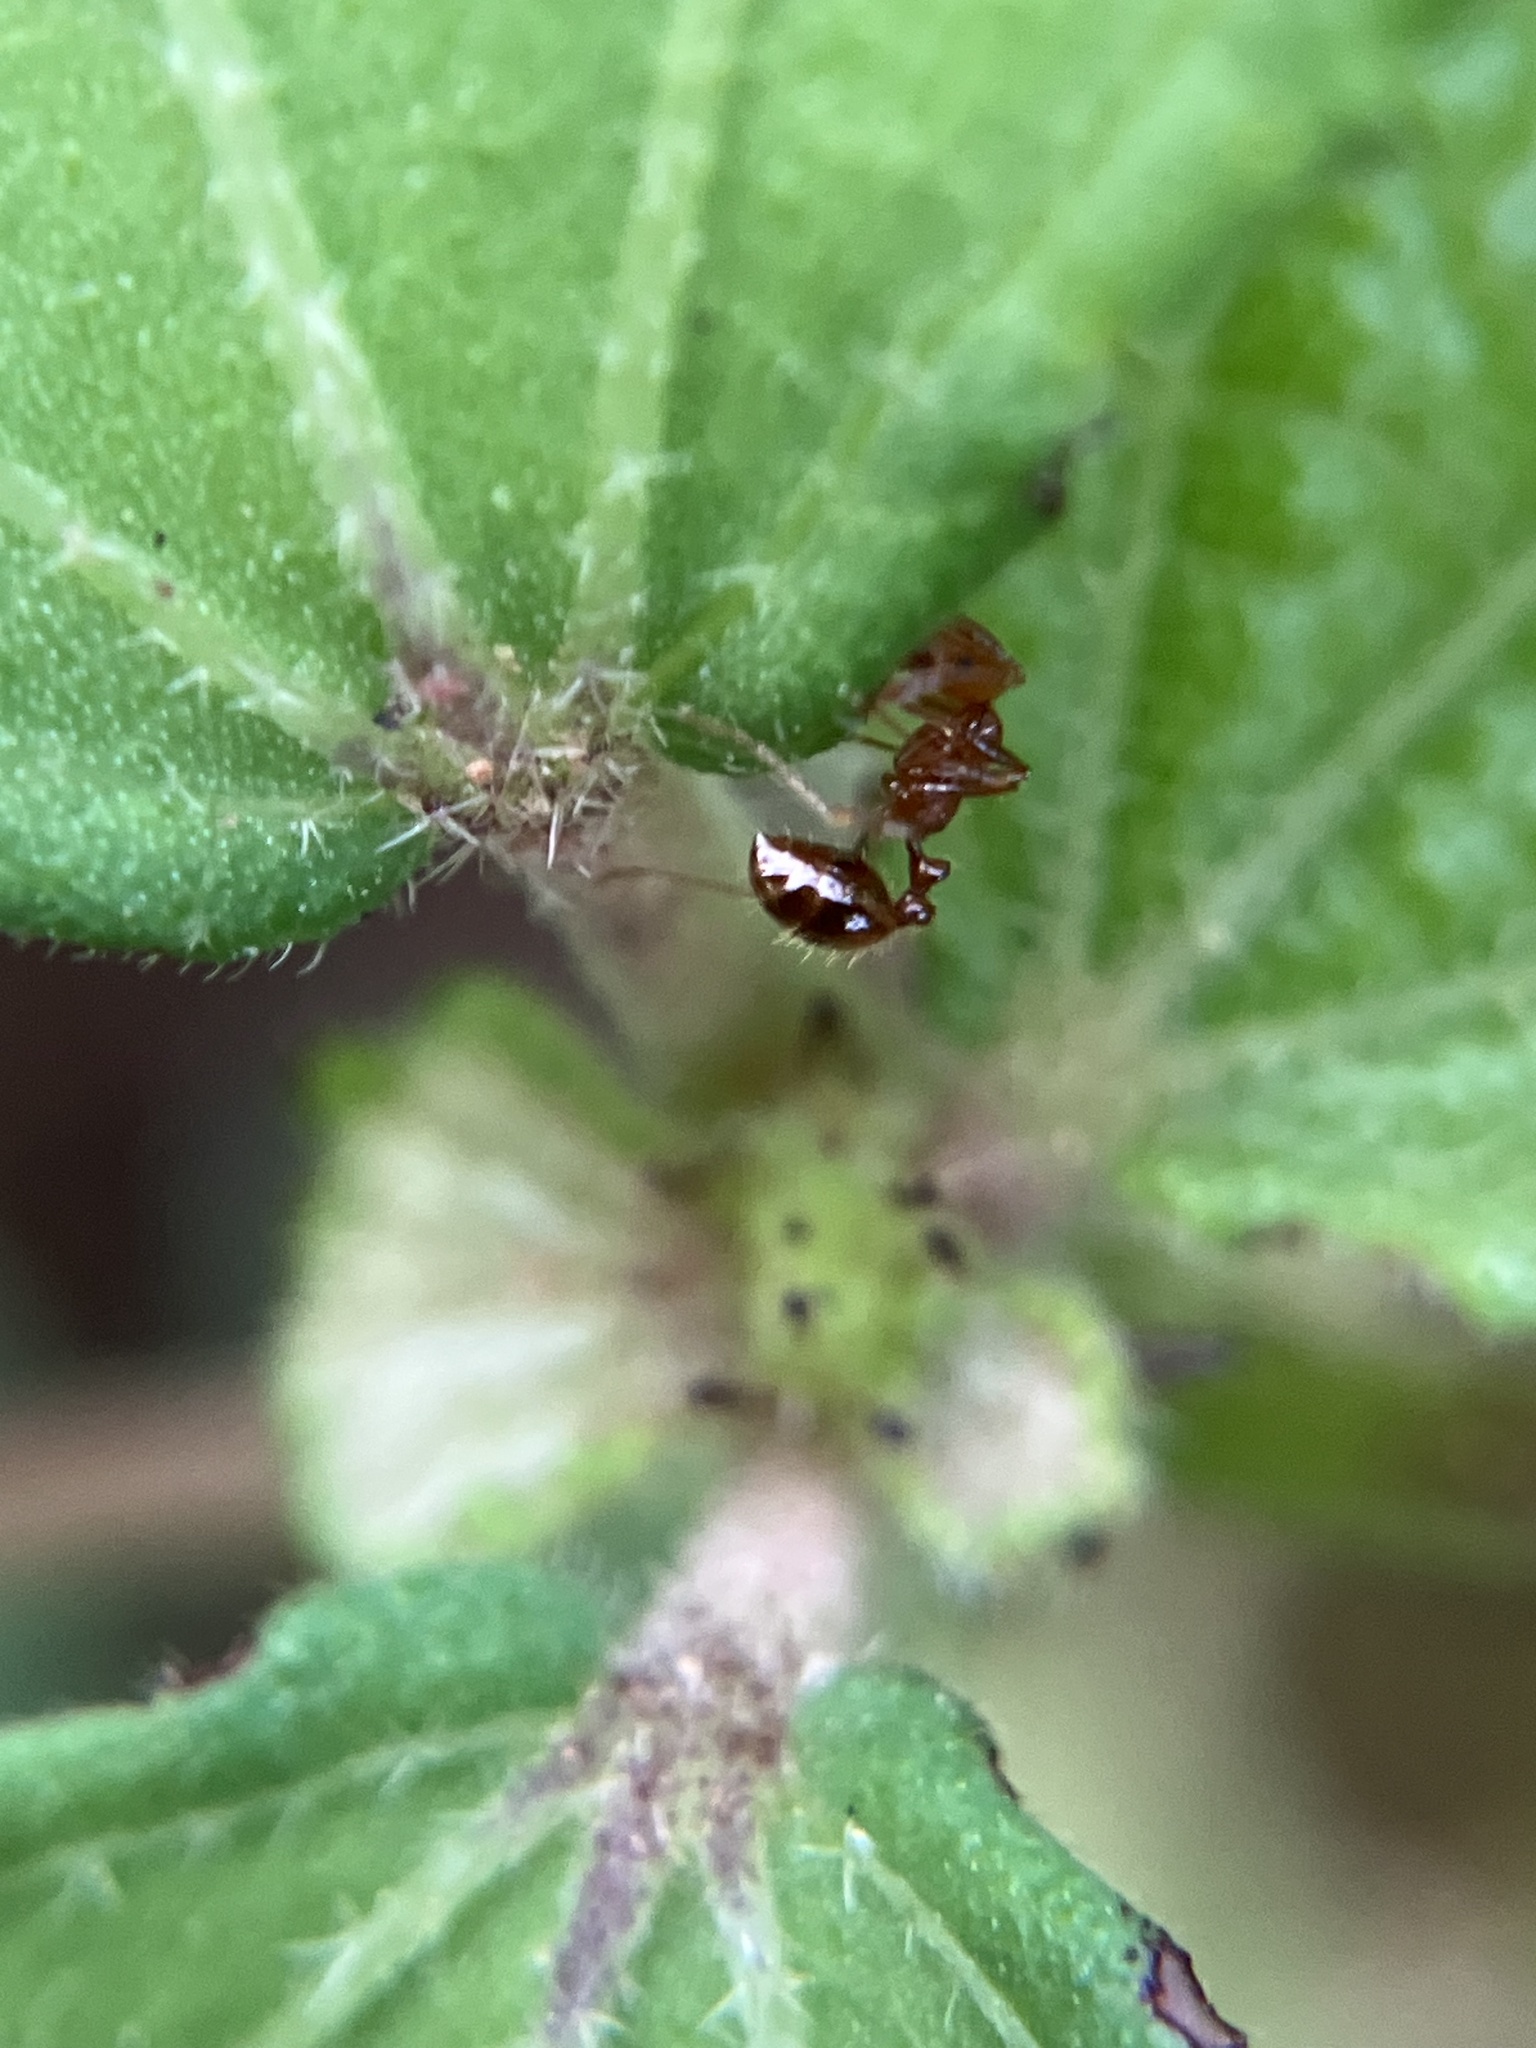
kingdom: Animalia
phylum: Arthropoda
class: Insecta
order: Hymenoptera
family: Formicidae
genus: Solenopsis
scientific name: Solenopsis geminata
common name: Tropical fire ant
